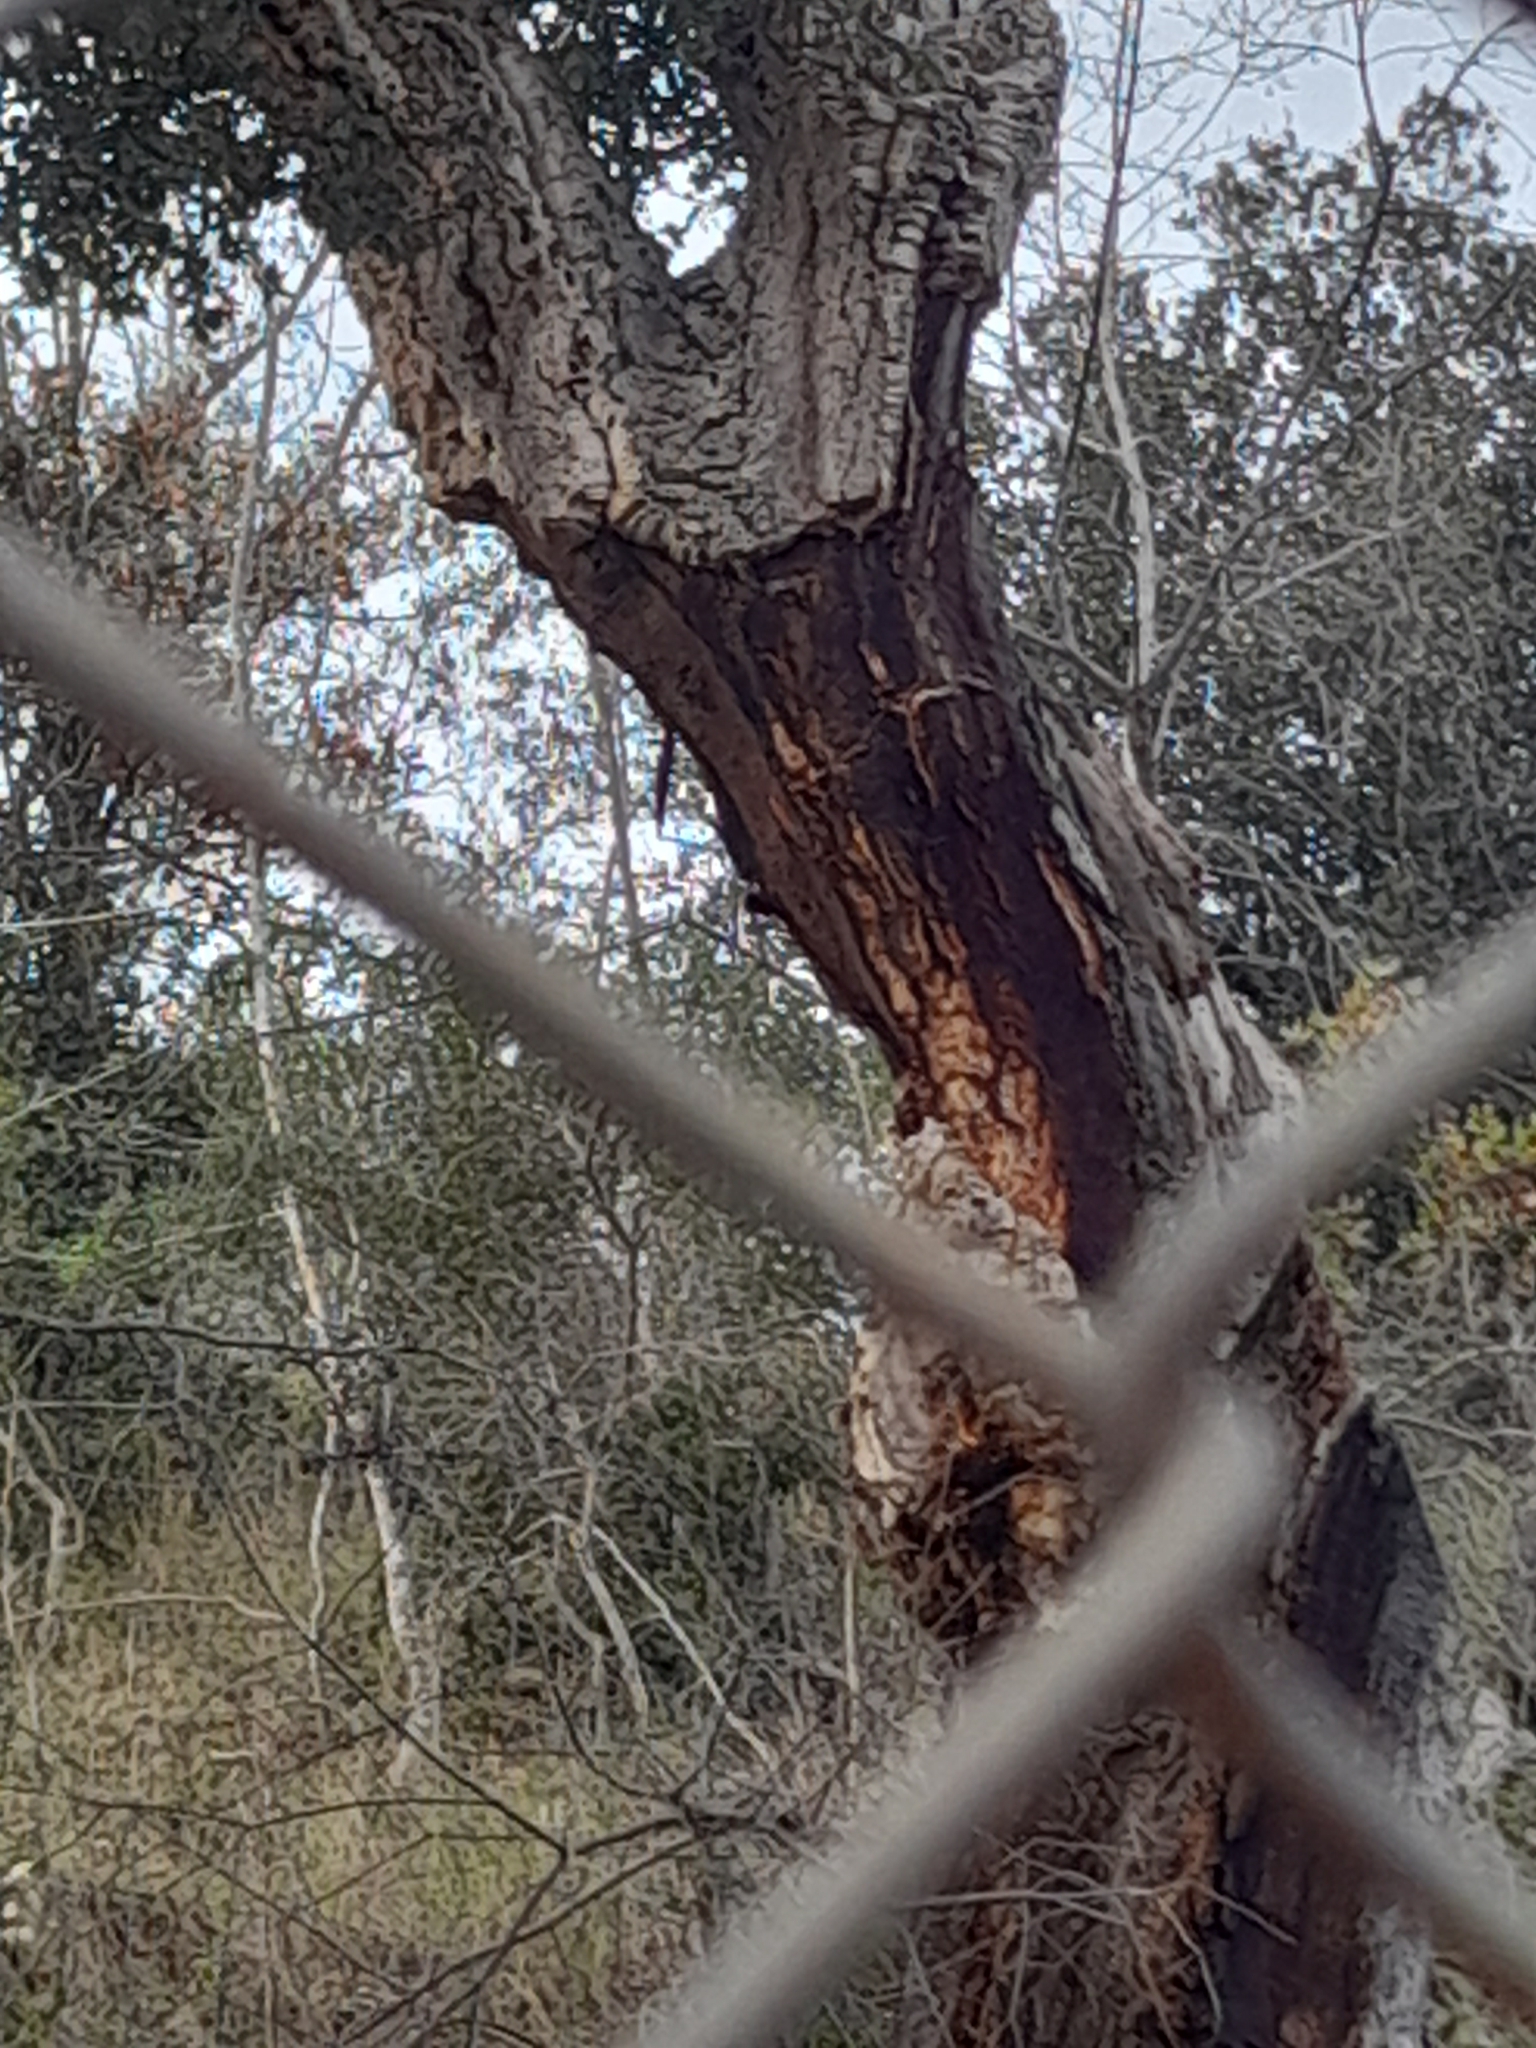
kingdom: Plantae
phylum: Tracheophyta
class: Magnoliopsida
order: Fagales
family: Fagaceae
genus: Quercus
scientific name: Quercus suber
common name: Cork oak
